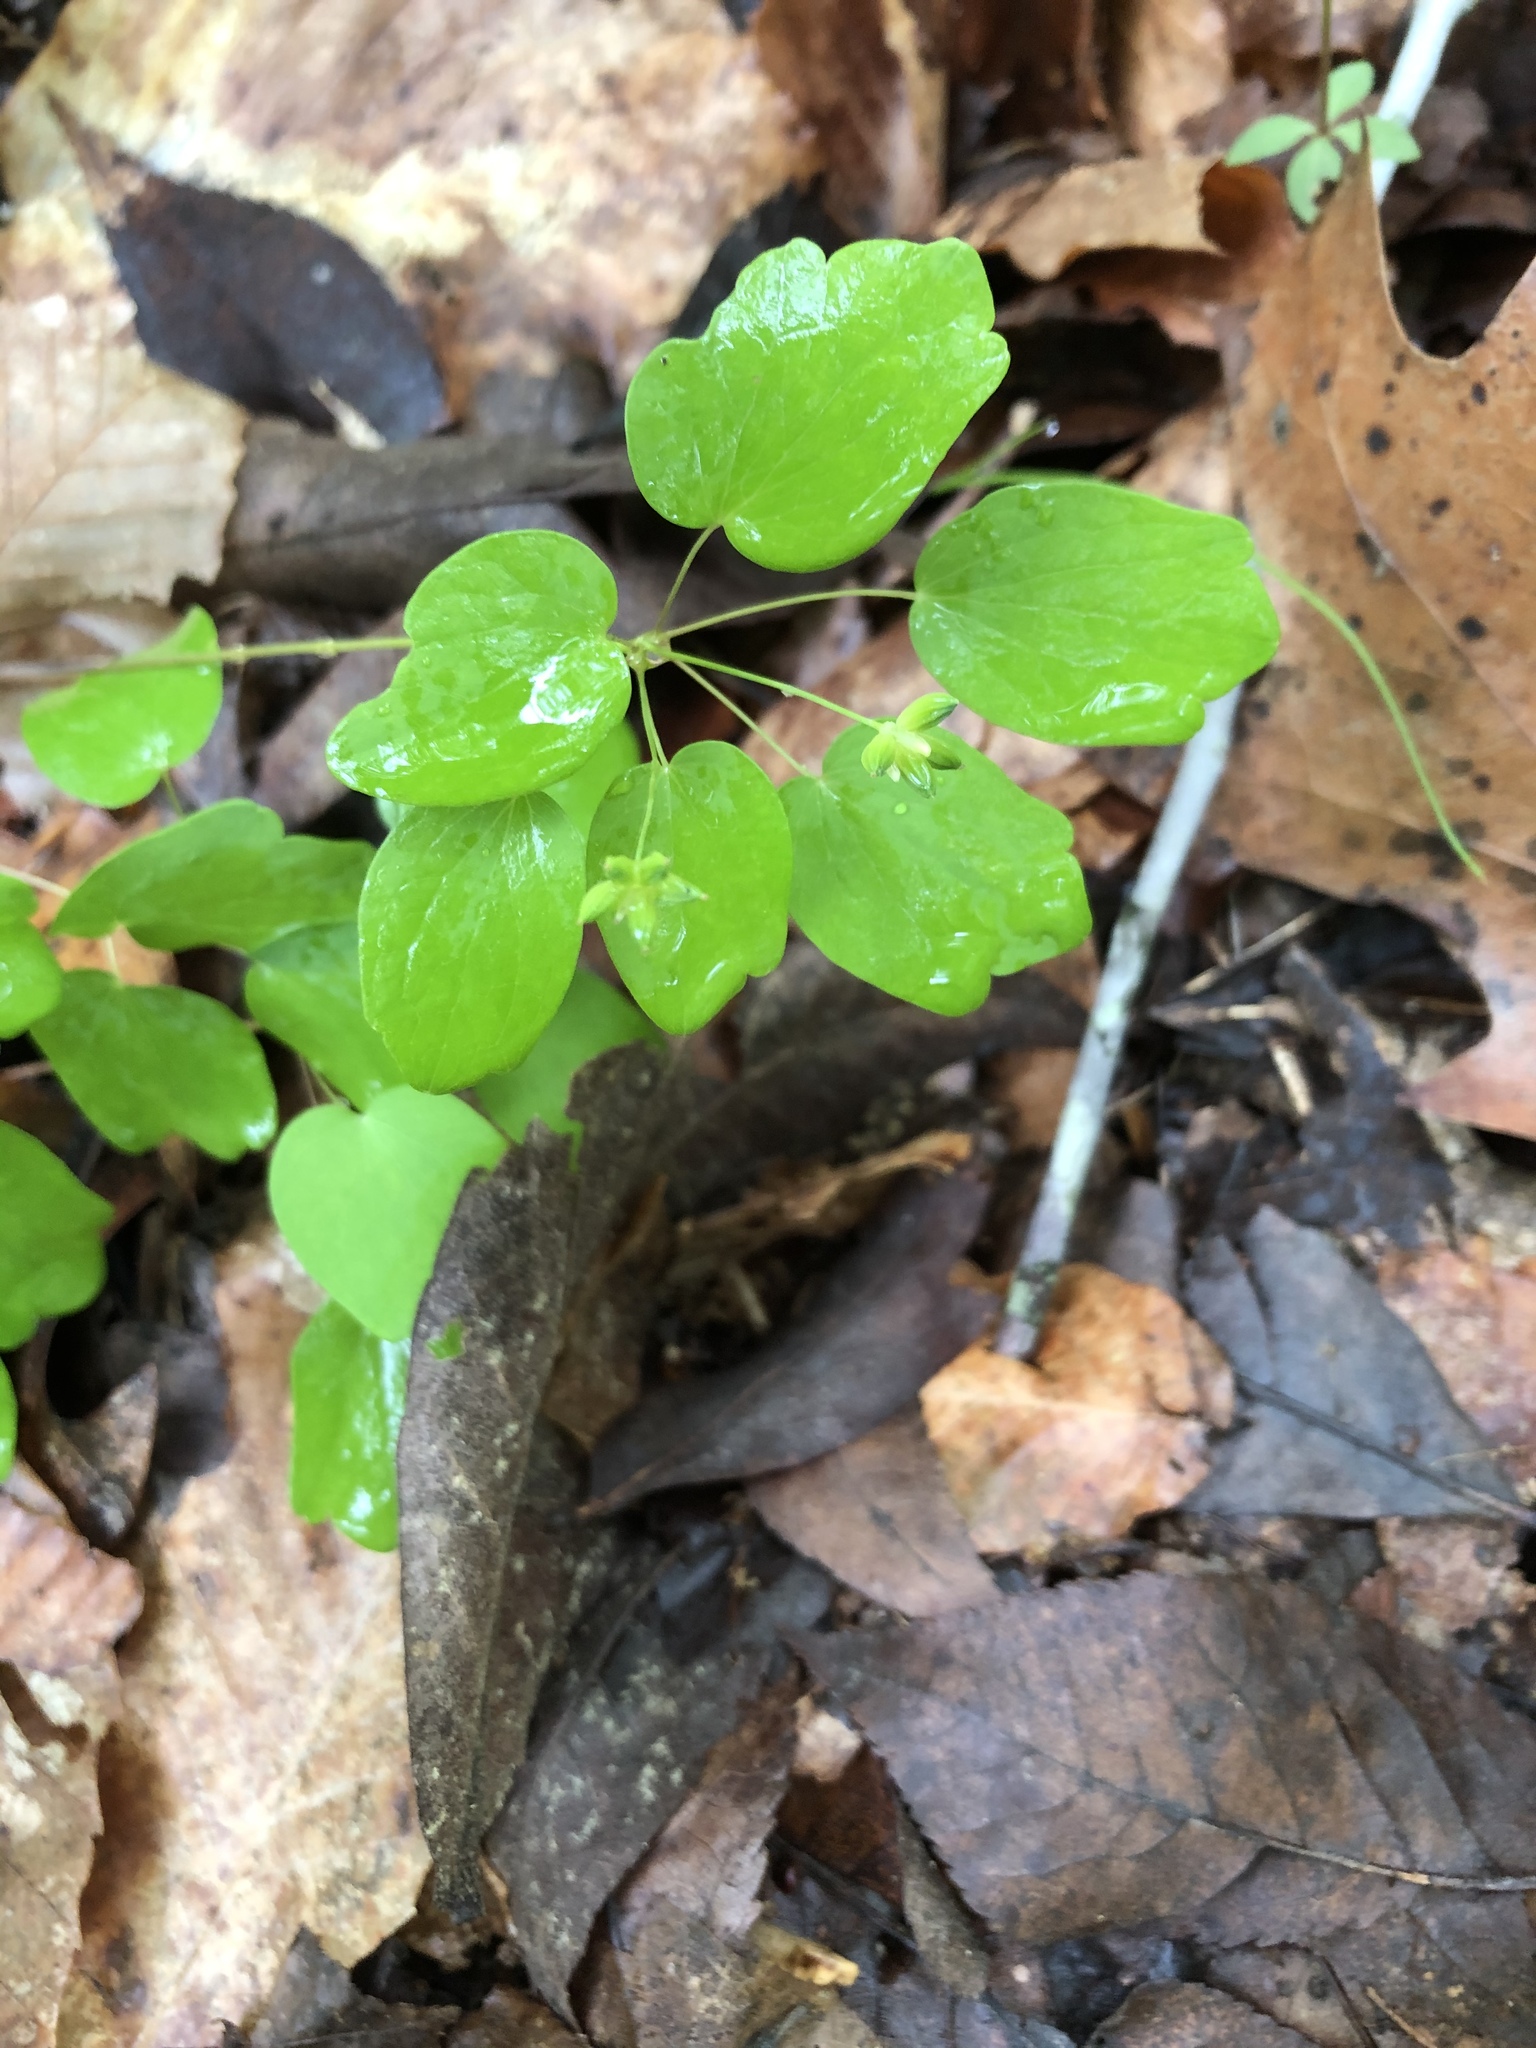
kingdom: Plantae
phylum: Tracheophyta
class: Magnoliopsida
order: Ranunculales
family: Ranunculaceae
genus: Thalictrum
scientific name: Thalictrum thalictroides
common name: Rue-anemone
